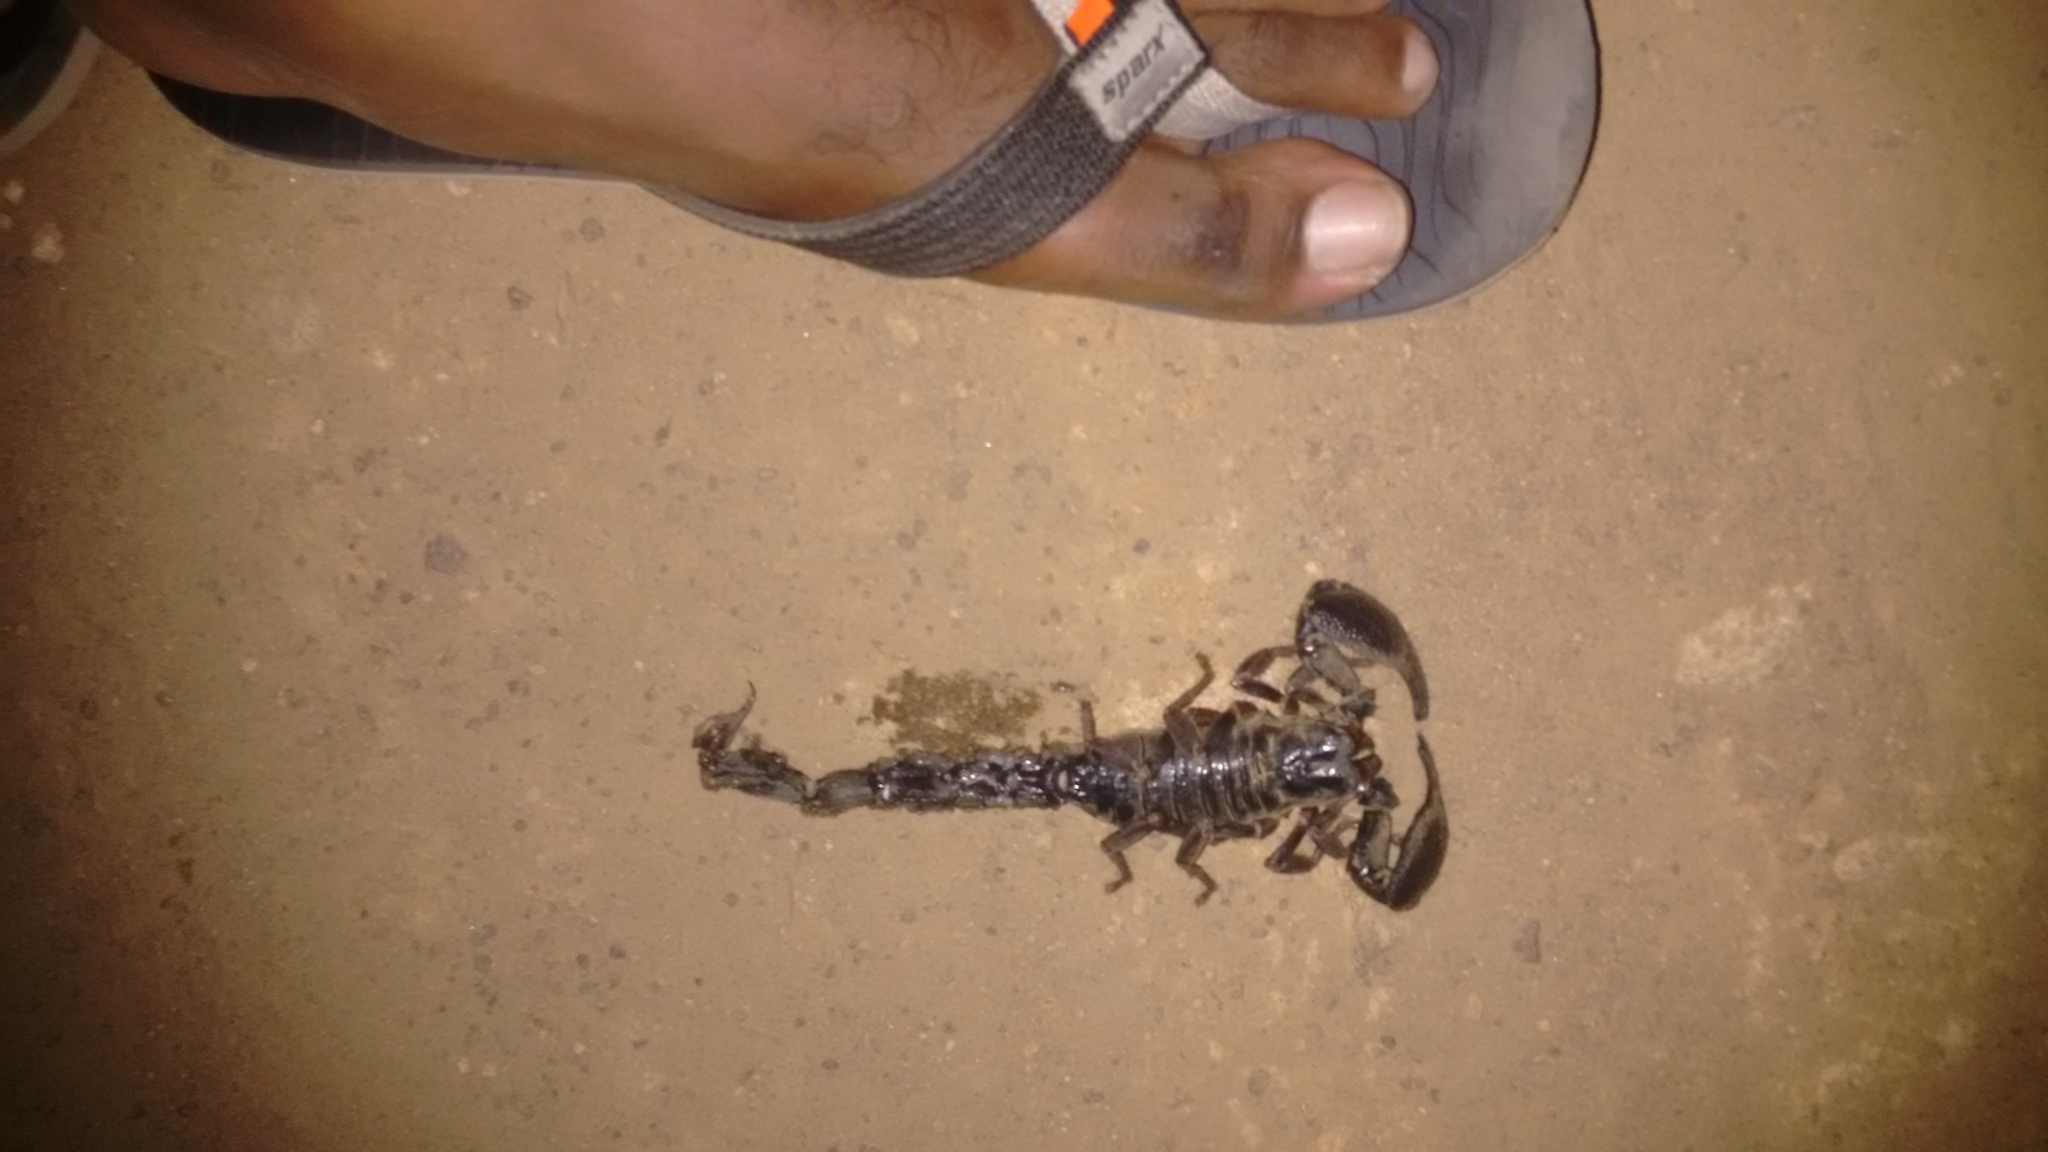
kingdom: Animalia
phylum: Arthropoda
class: Arachnida
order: Scorpiones
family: Scorpionidae
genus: Gigantometrus
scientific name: Gigantometrus swammerdami
